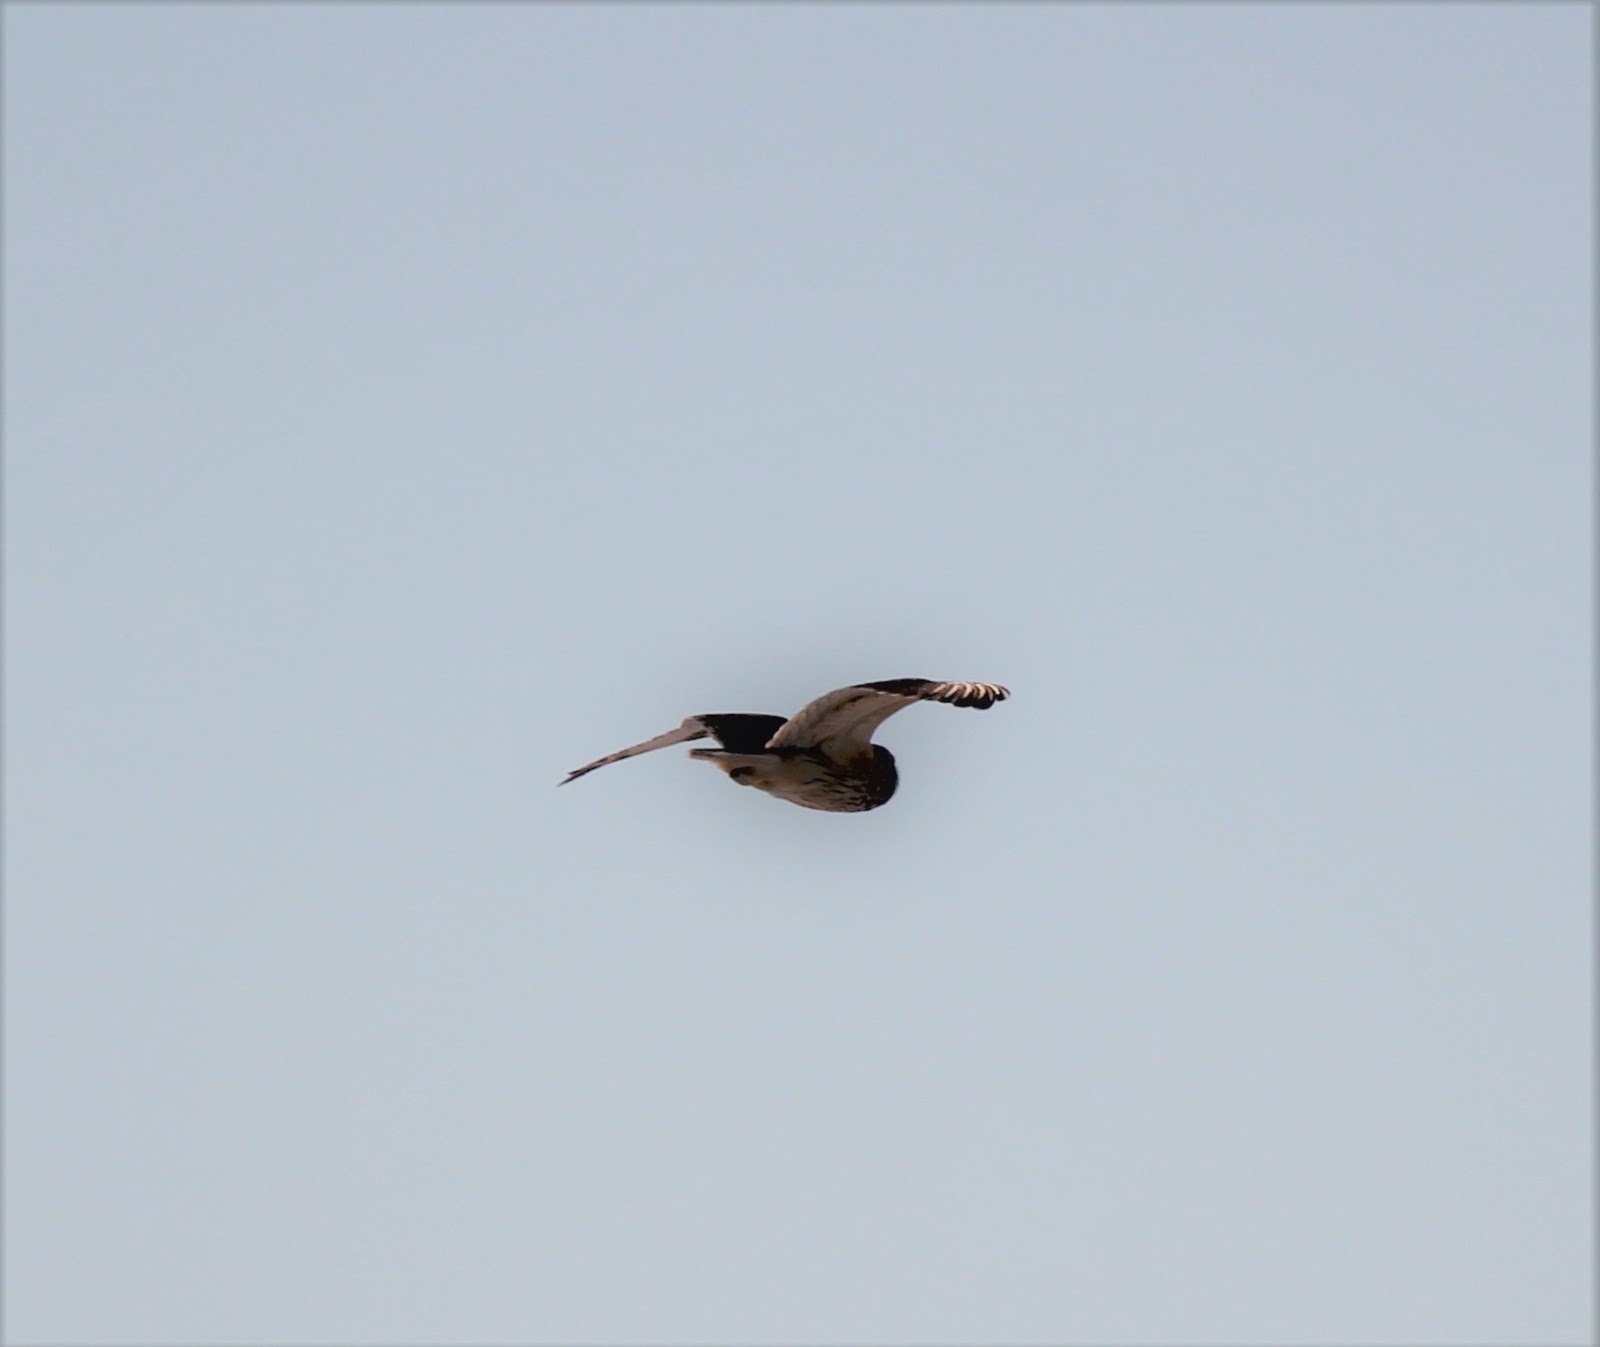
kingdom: Animalia
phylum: Chordata
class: Aves
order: Strigiformes
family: Strigidae
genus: Asio
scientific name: Asio flammeus
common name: Short-eared owl
